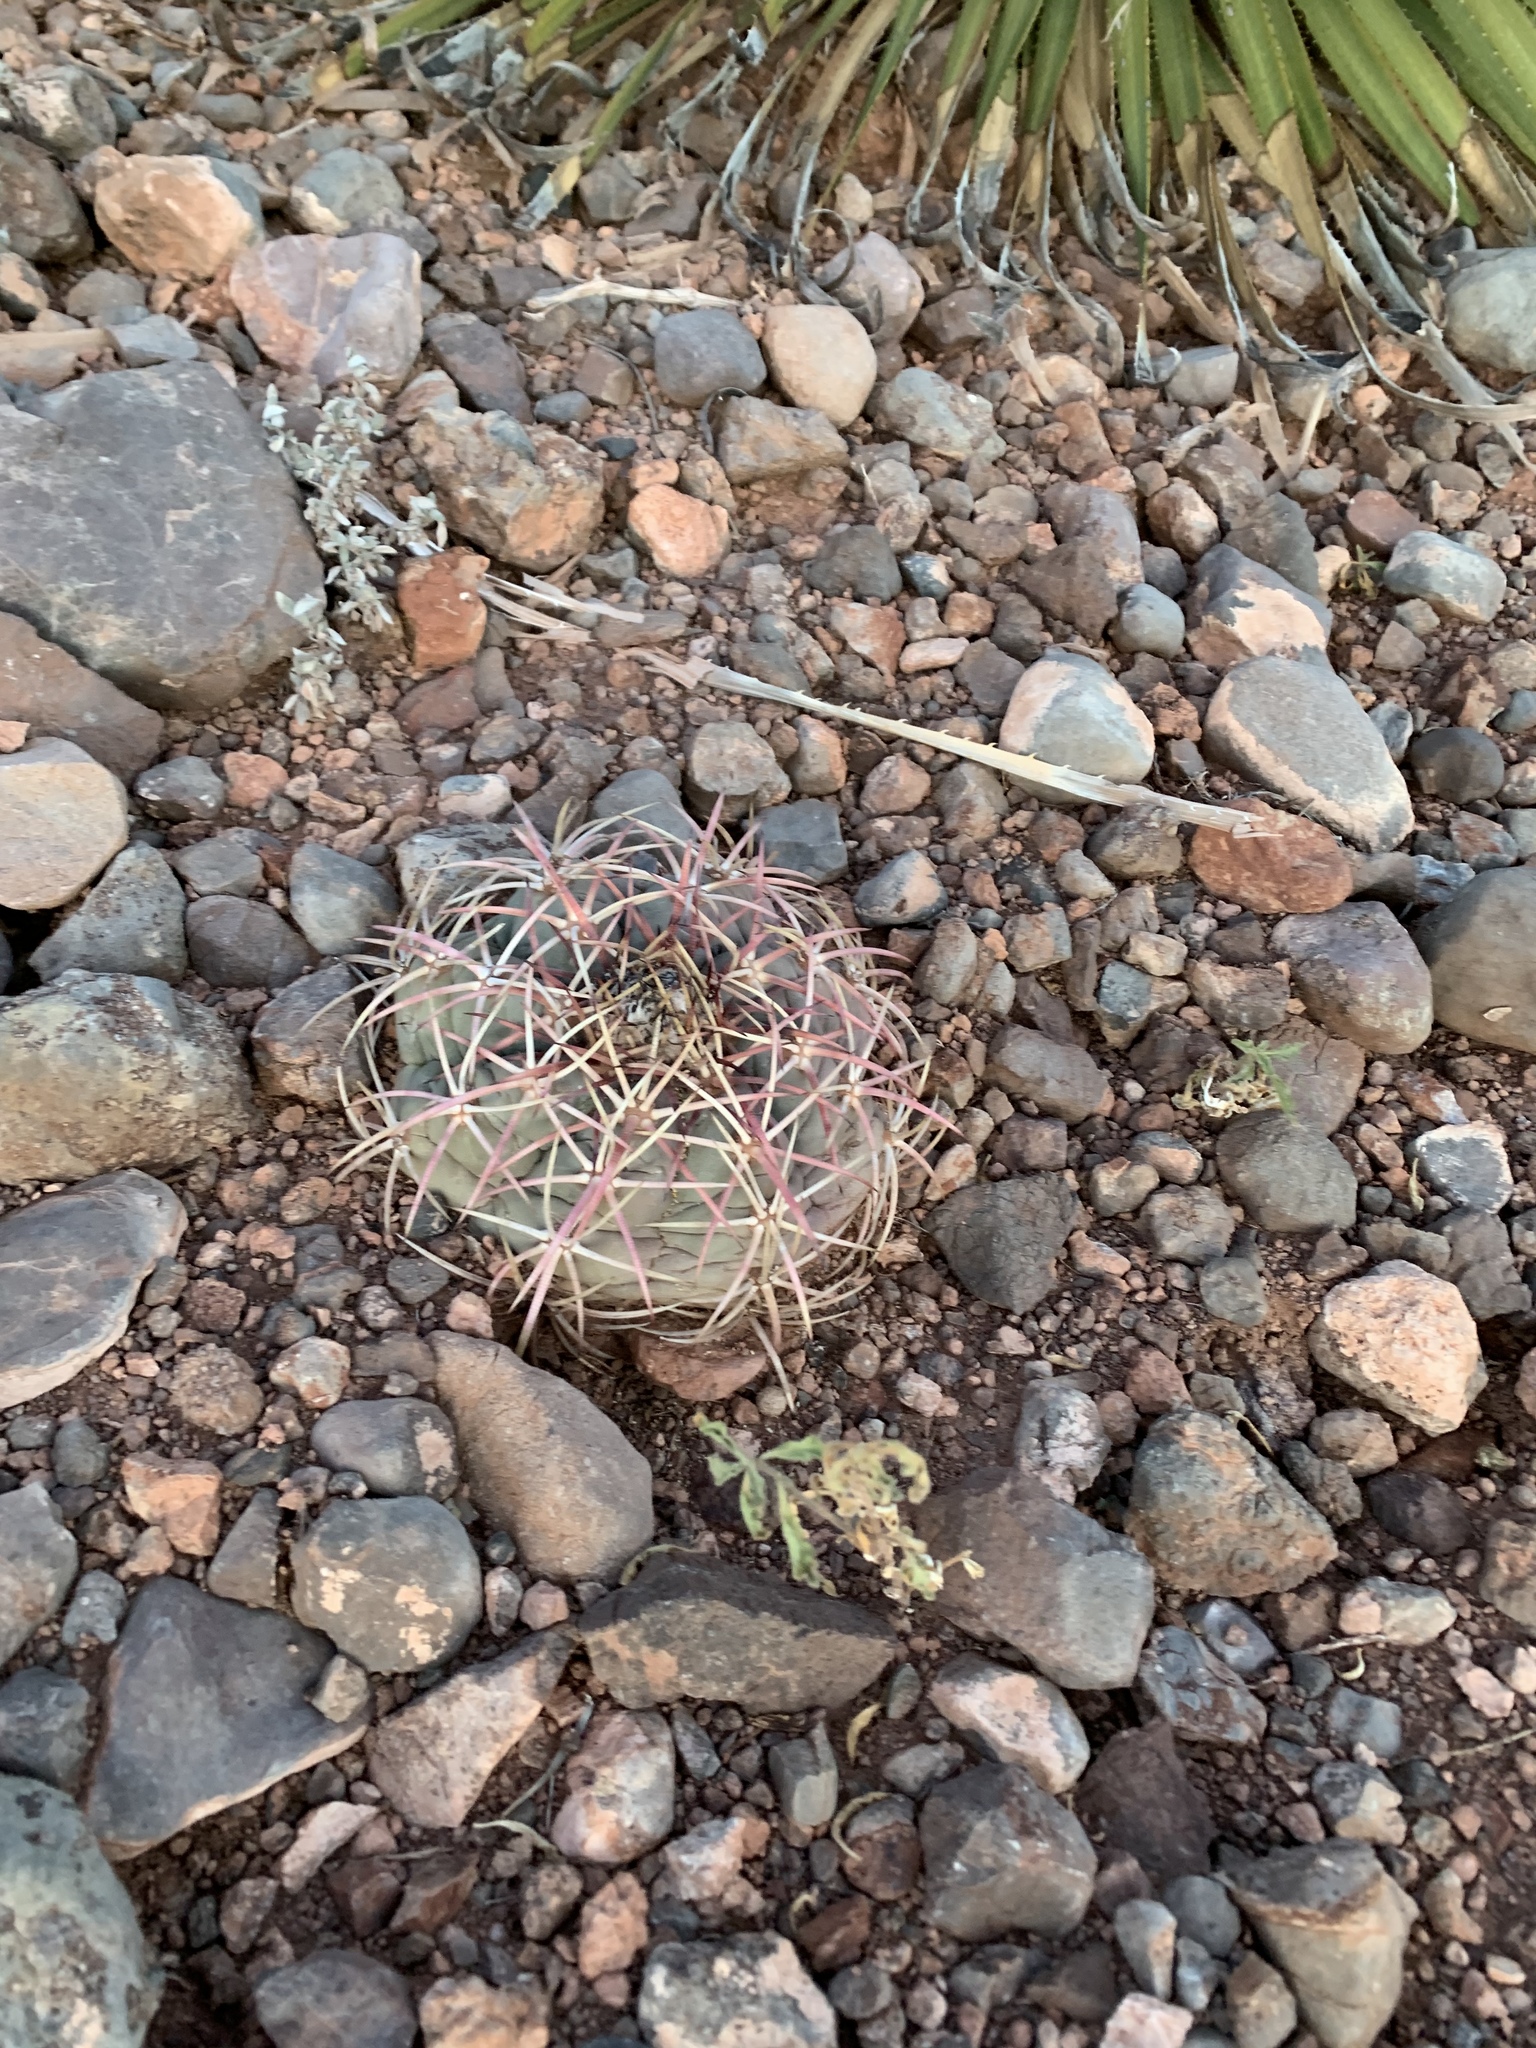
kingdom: Plantae
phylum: Tracheophyta
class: Magnoliopsida
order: Caryophyllales
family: Cactaceae
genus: Echinocactus
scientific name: Echinocactus horizonthalonius
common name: Devilshead
